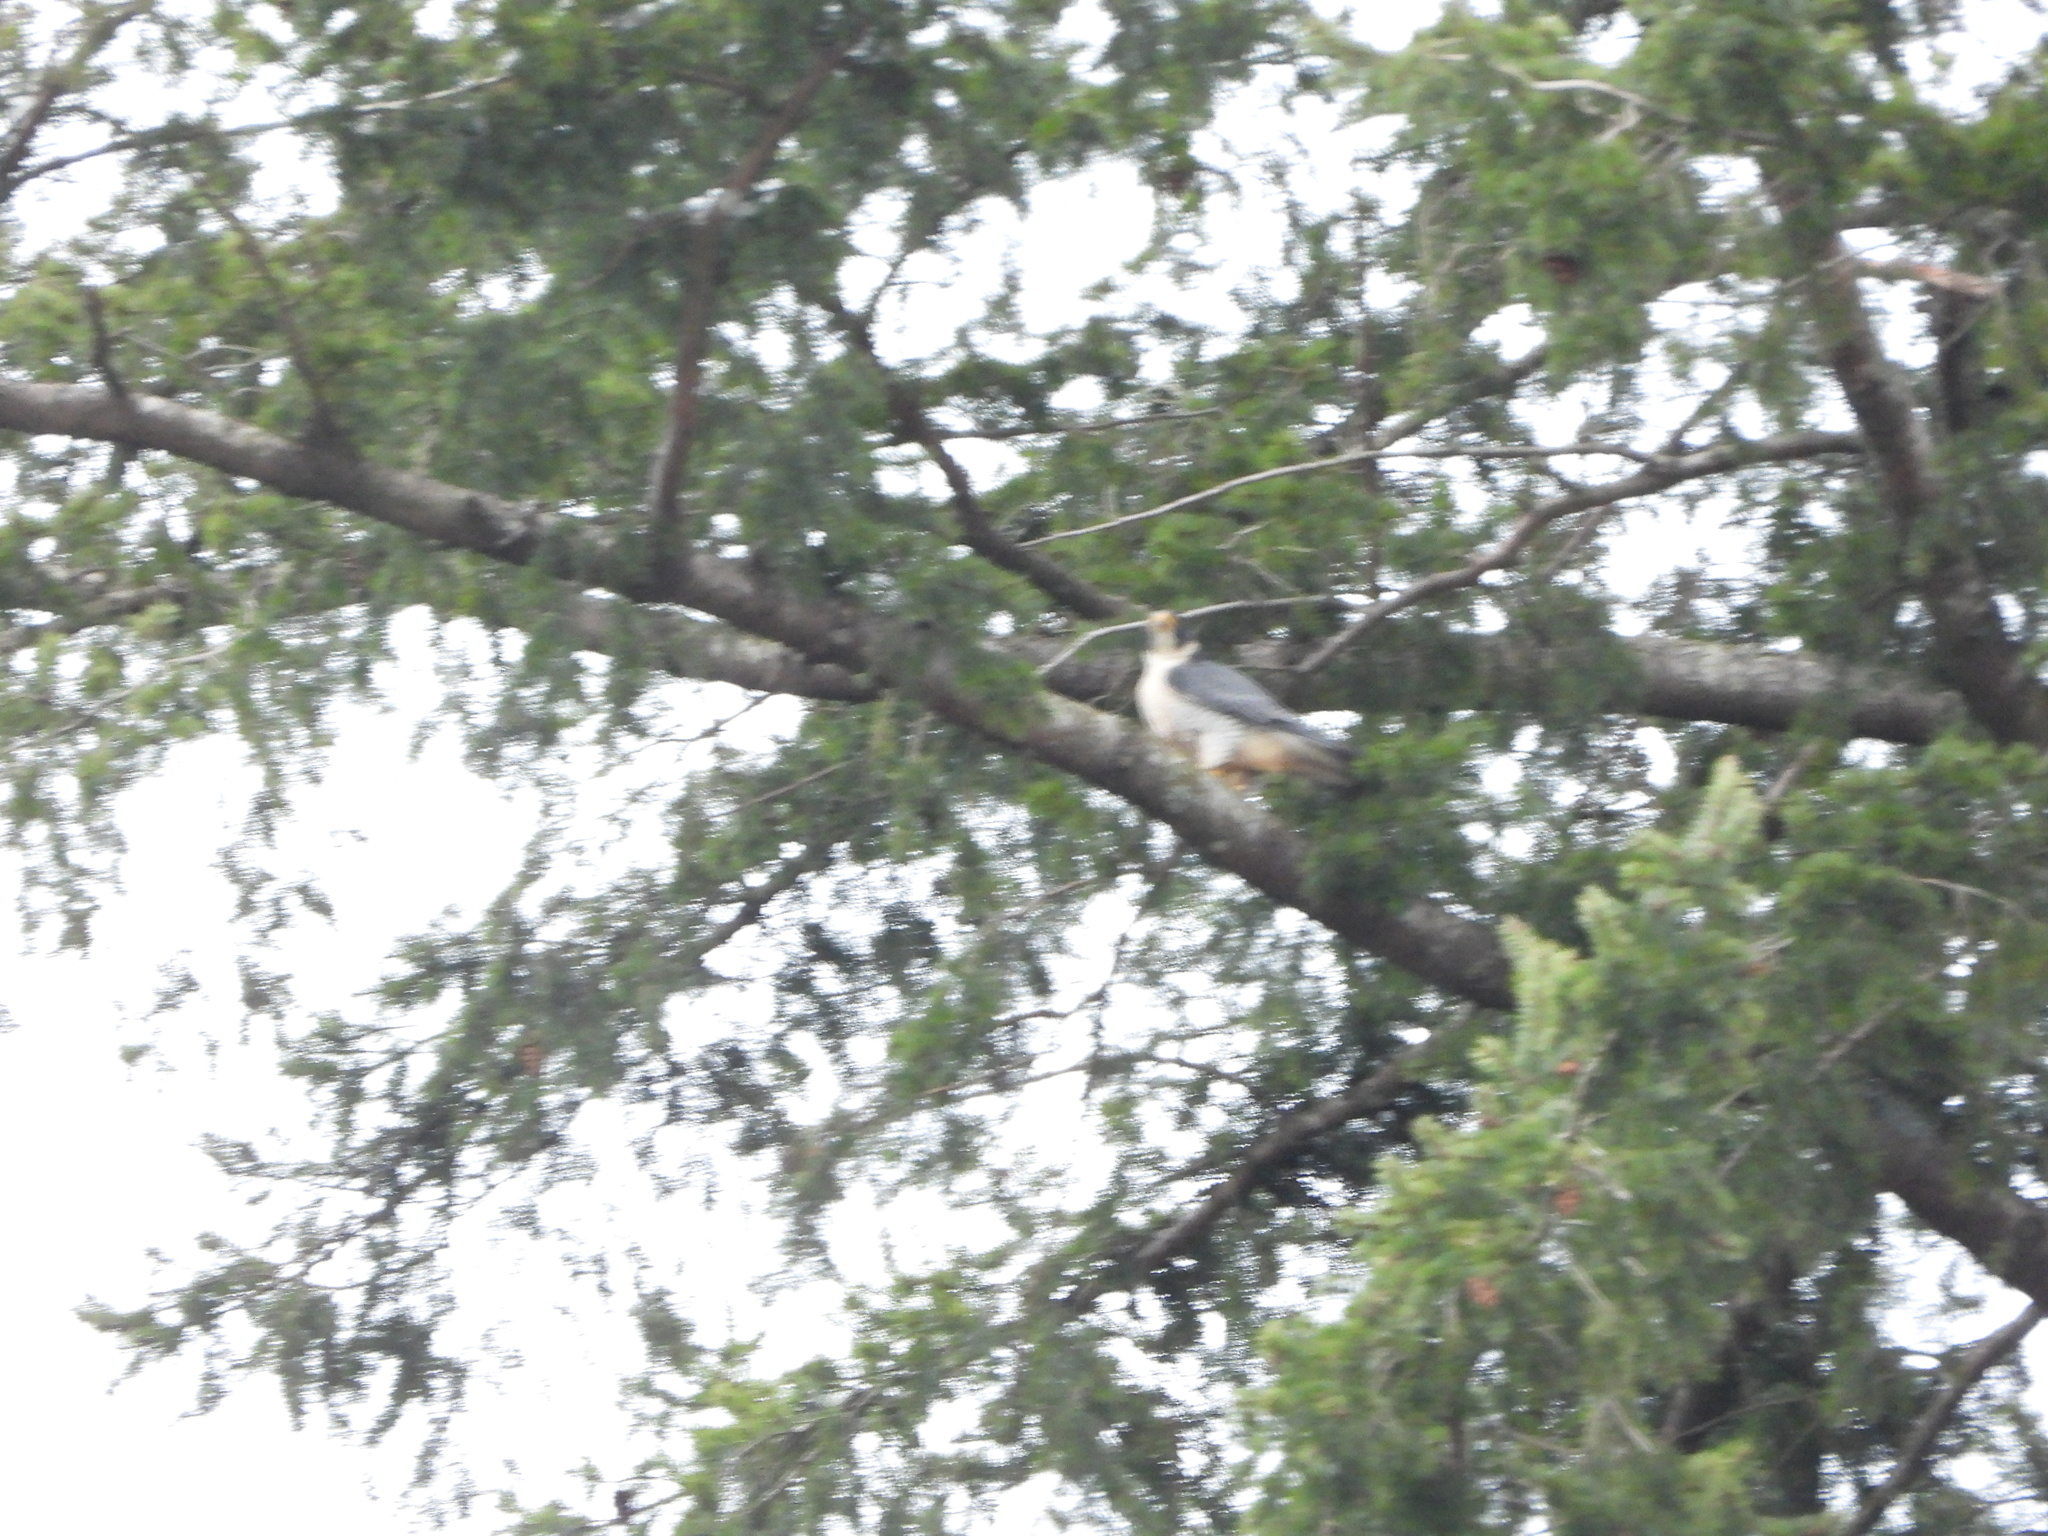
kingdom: Animalia
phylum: Chordata
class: Aves
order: Falconiformes
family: Falconidae
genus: Falco
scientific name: Falco peregrinus
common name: Peregrine falcon
